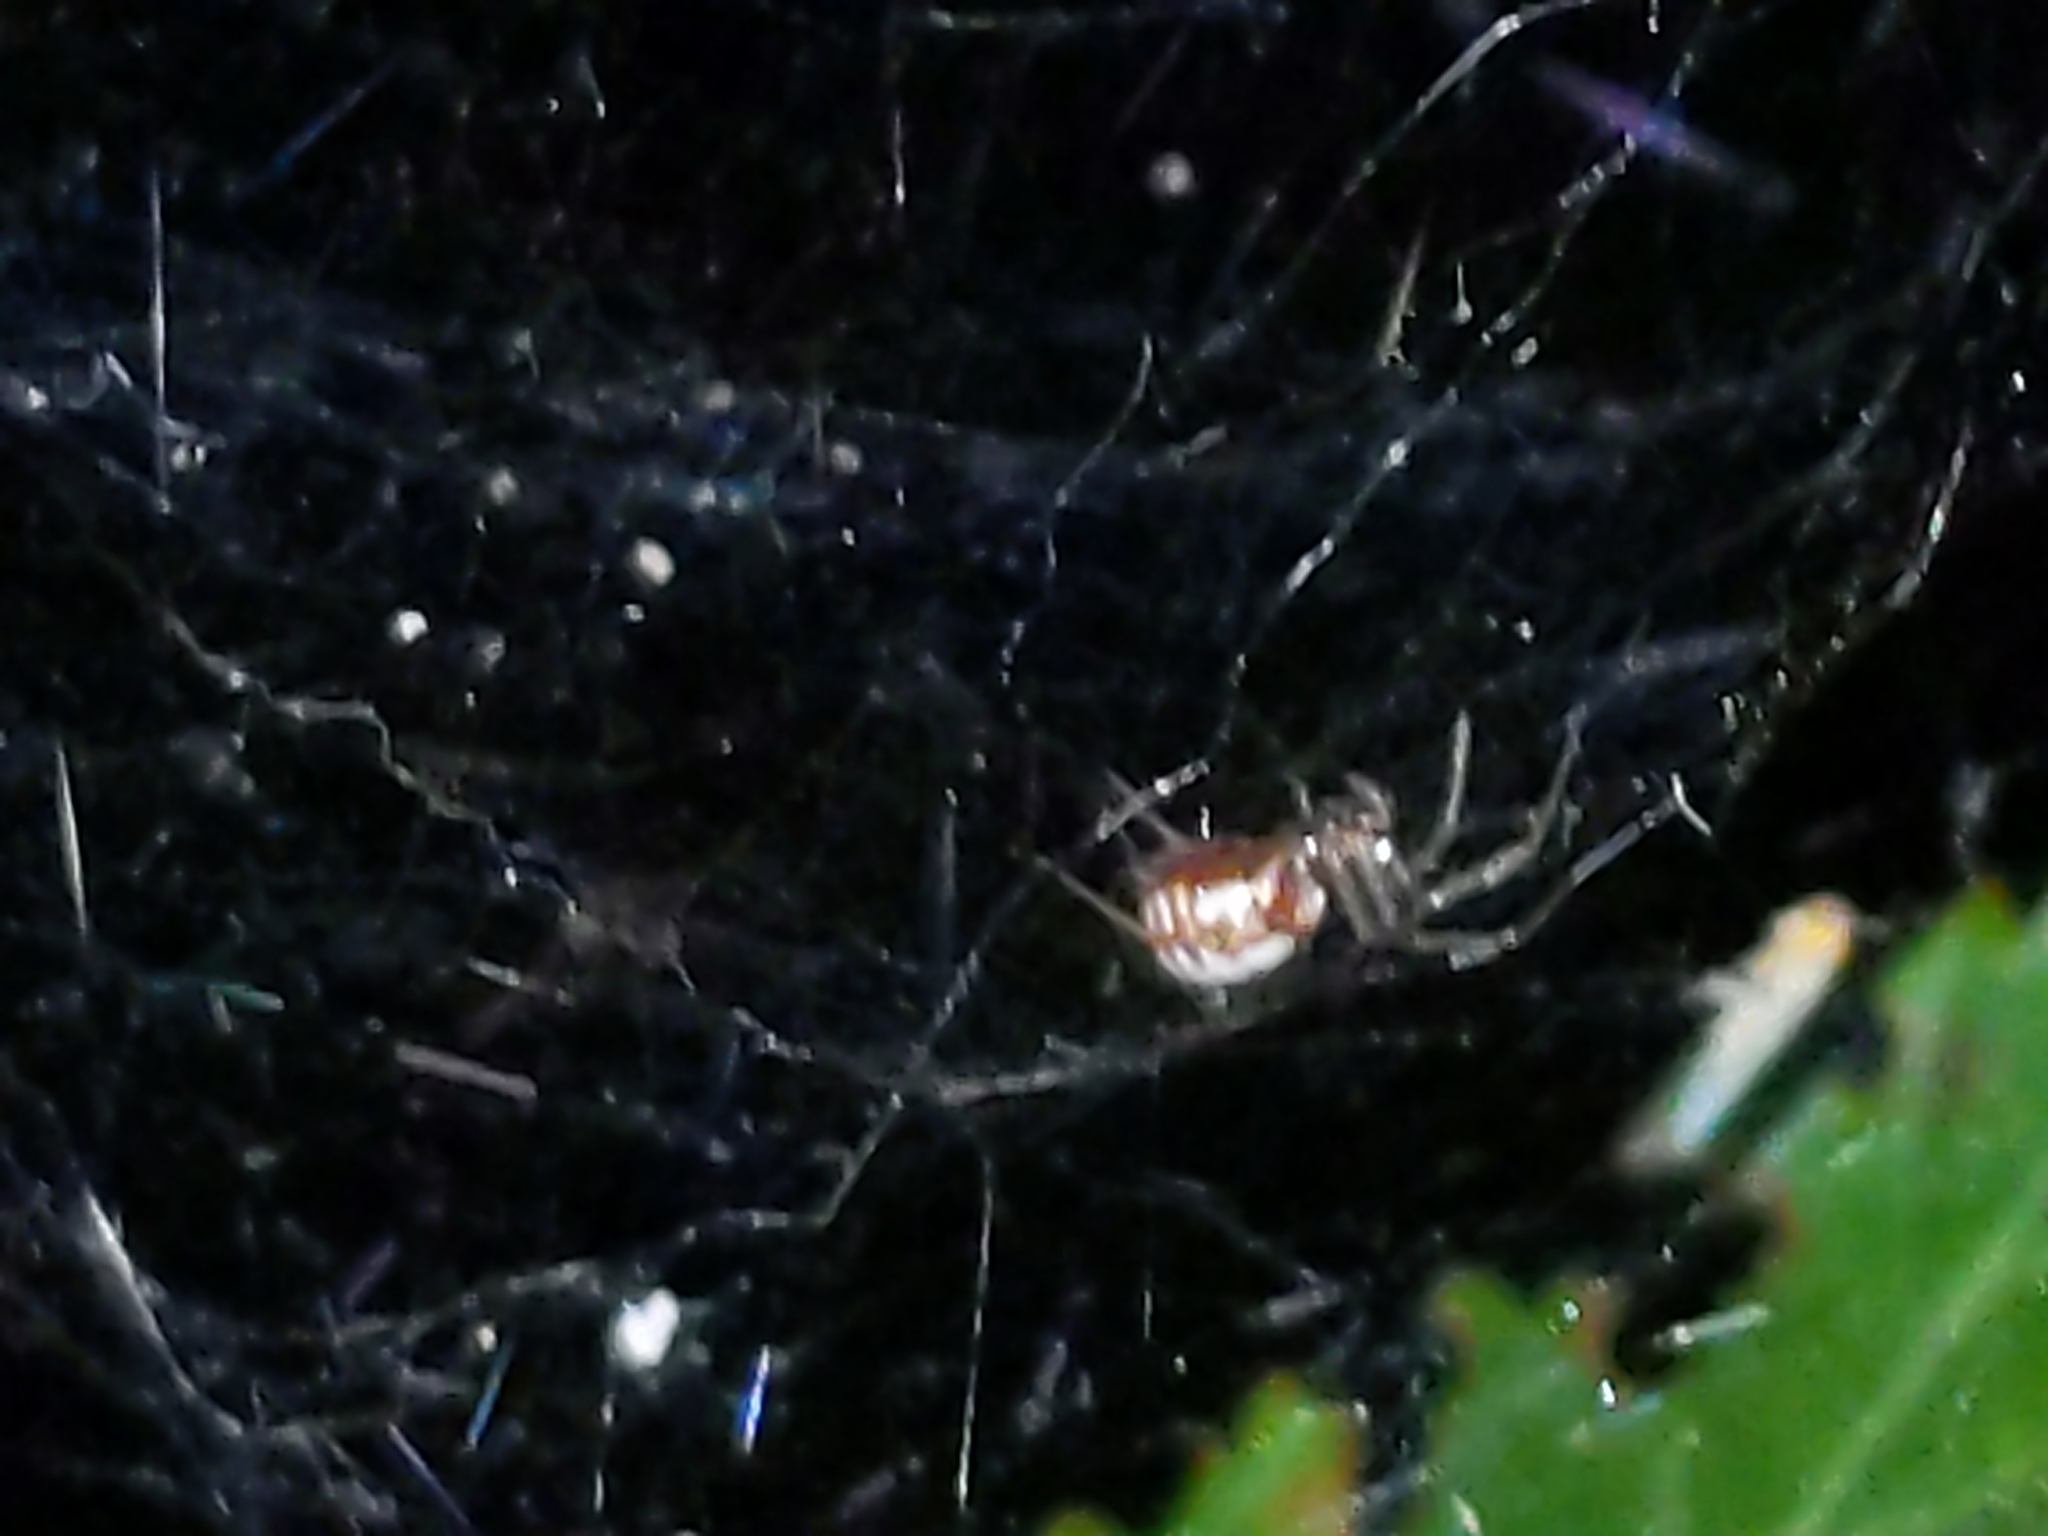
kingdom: Animalia
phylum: Arthropoda
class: Arachnida
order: Araneae
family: Linyphiidae
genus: Frontinella
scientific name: Frontinella pyramitela
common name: Bowl-and-doily spider
